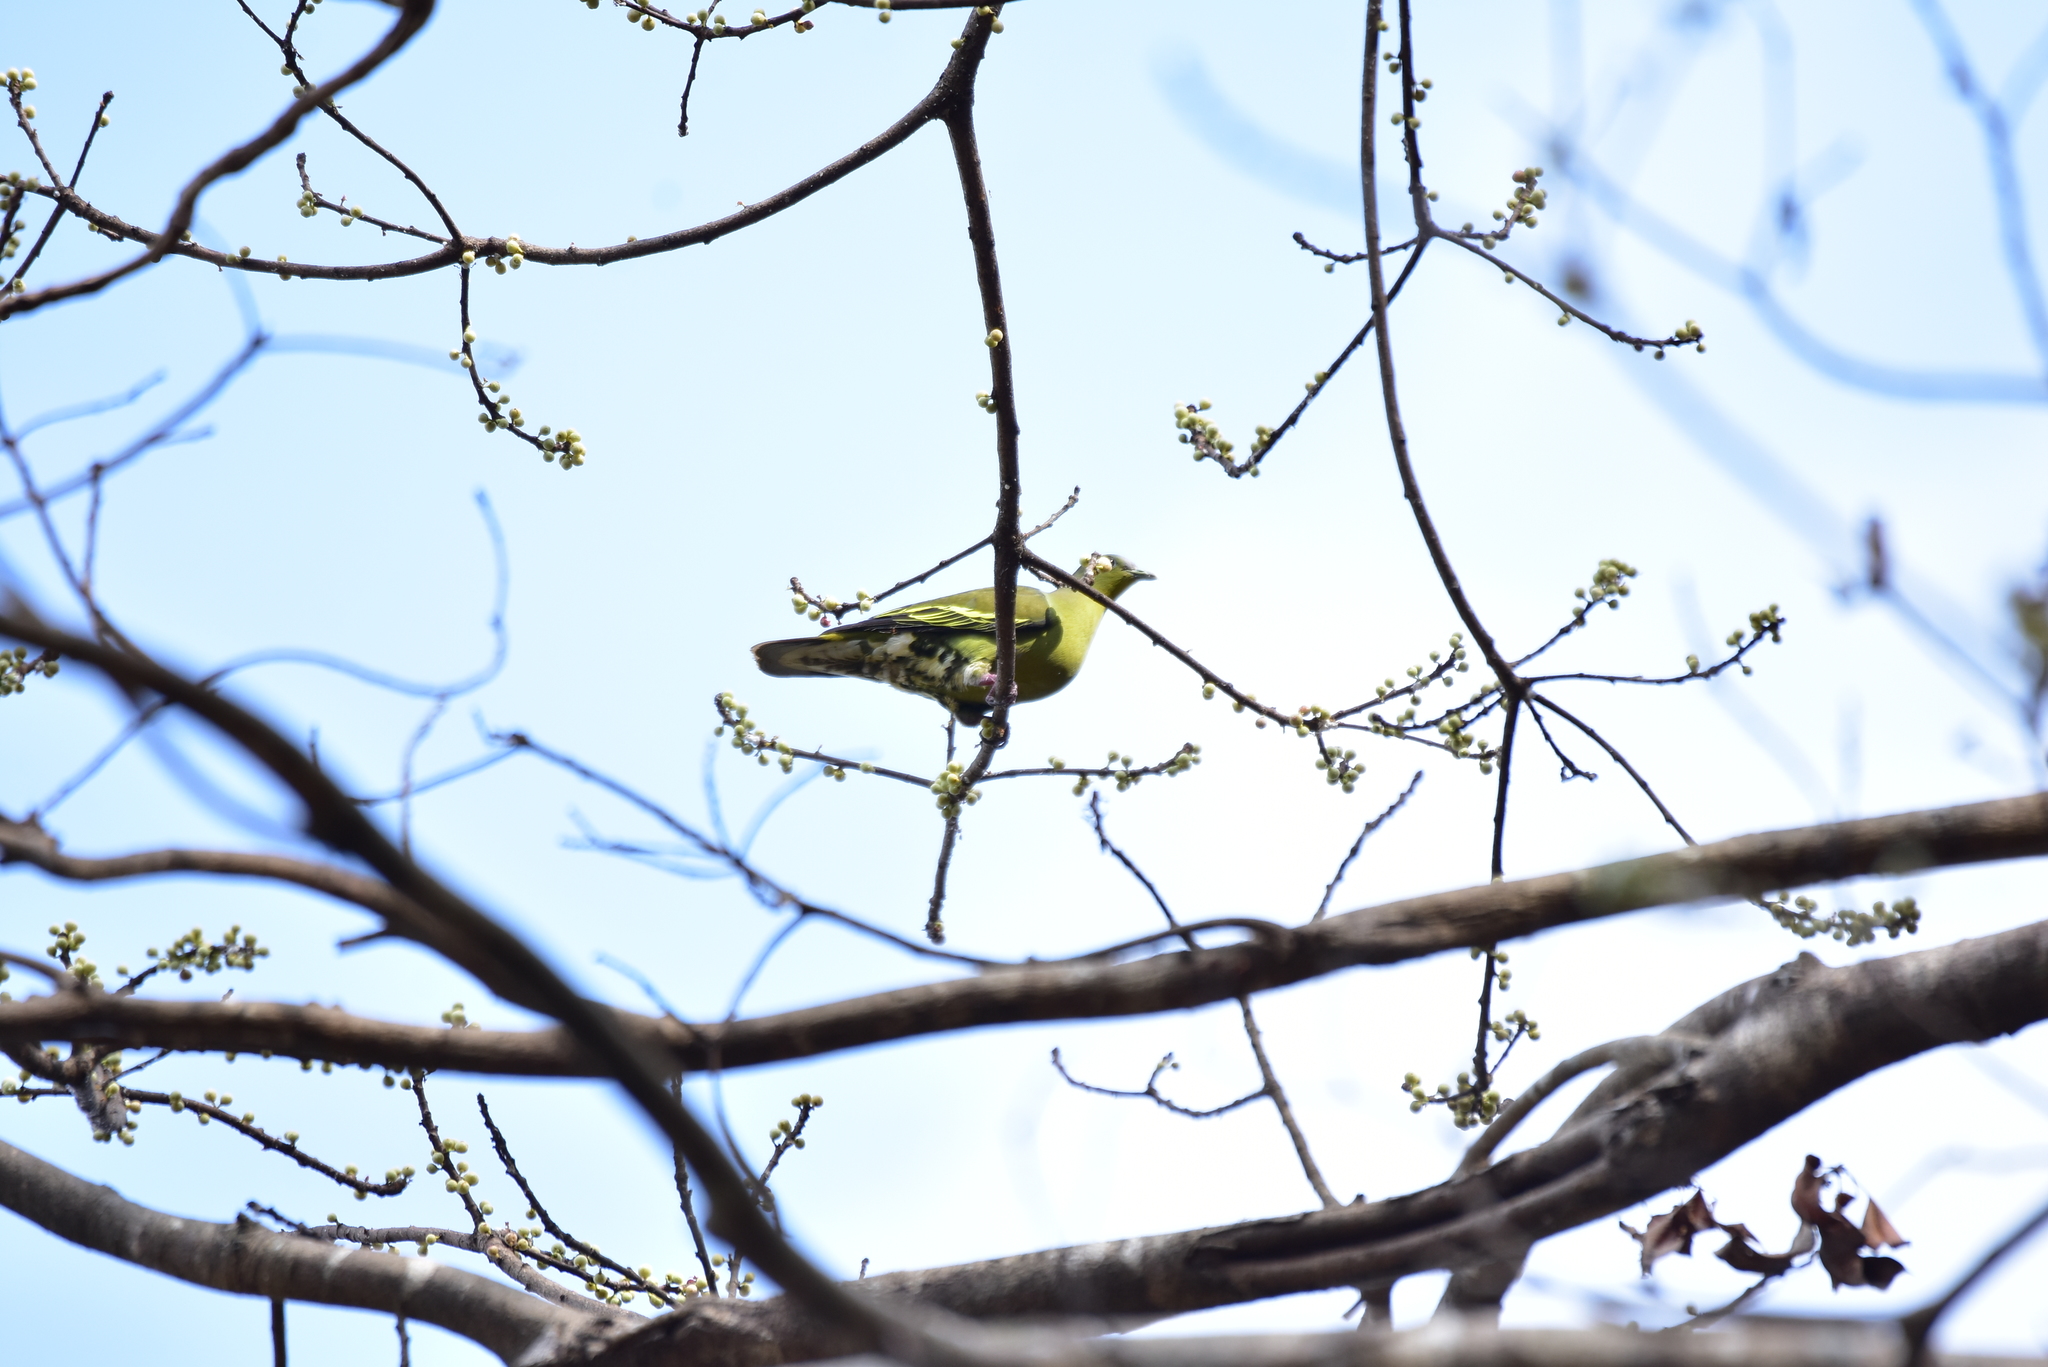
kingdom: Animalia
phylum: Chordata
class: Aves
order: Columbiformes
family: Columbidae
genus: Treron
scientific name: Treron affinis
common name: Grey-fronted green pigeon
